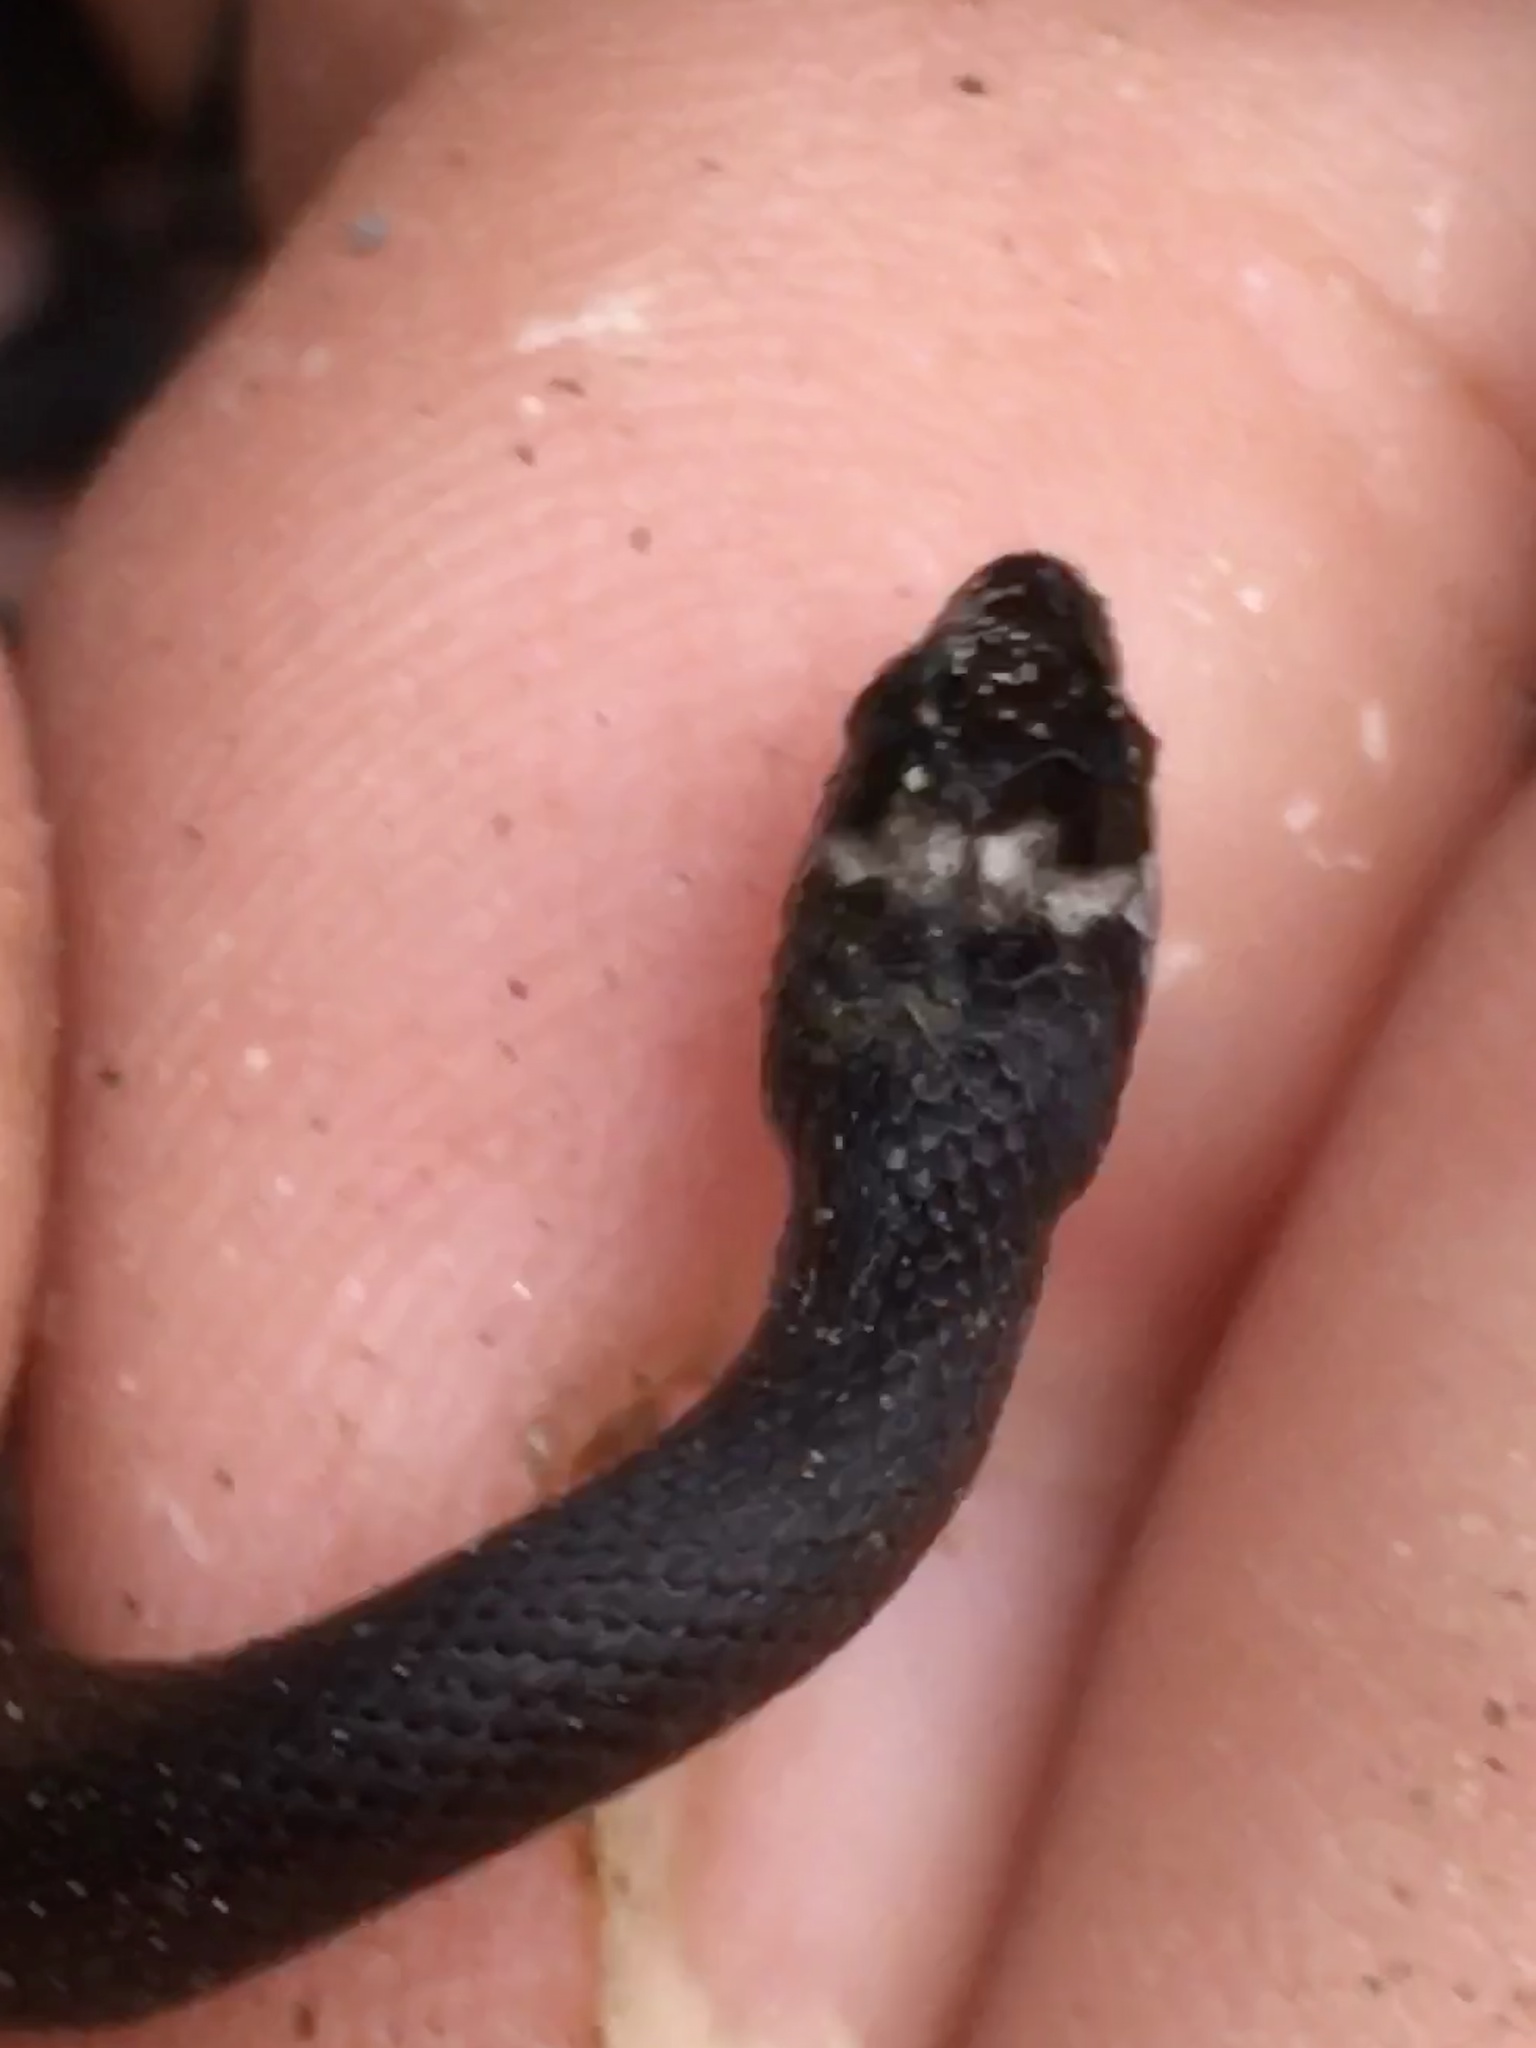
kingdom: Animalia
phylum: Chordata
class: Squamata
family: Colubridae
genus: Haldea
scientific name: Haldea striatula
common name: Rough earth snake
